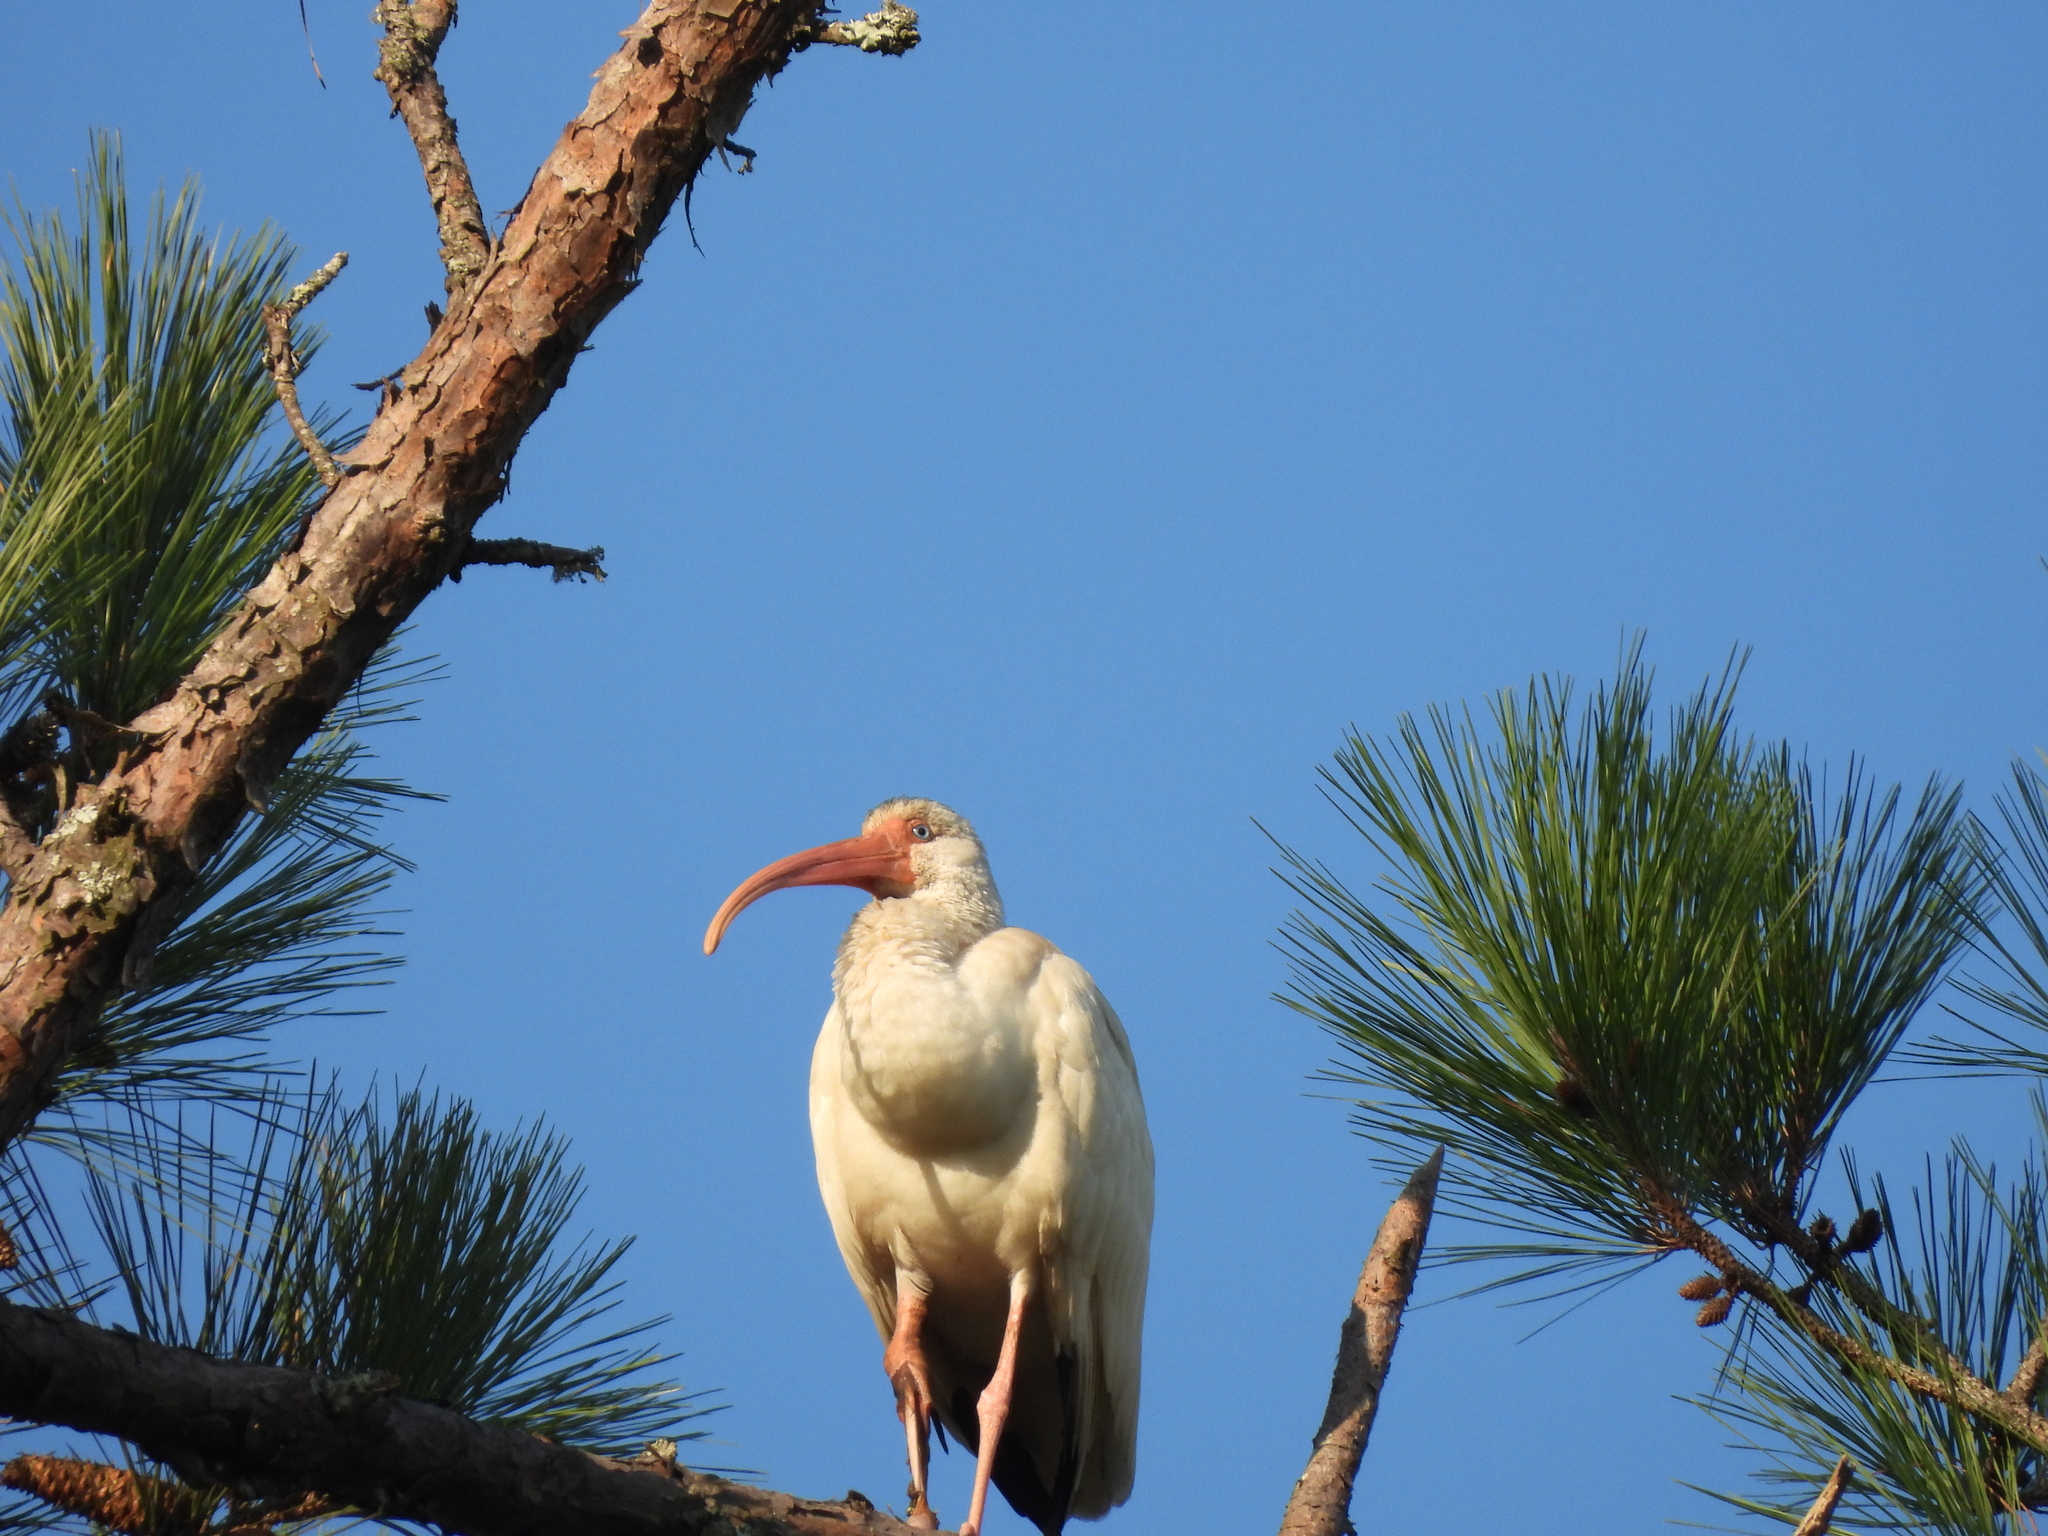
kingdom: Animalia
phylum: Chordata
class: Aves
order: Pelecaniformes
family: Threskiornithidae
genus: Eudocimus
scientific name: Eudocimus albus
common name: White ibis
